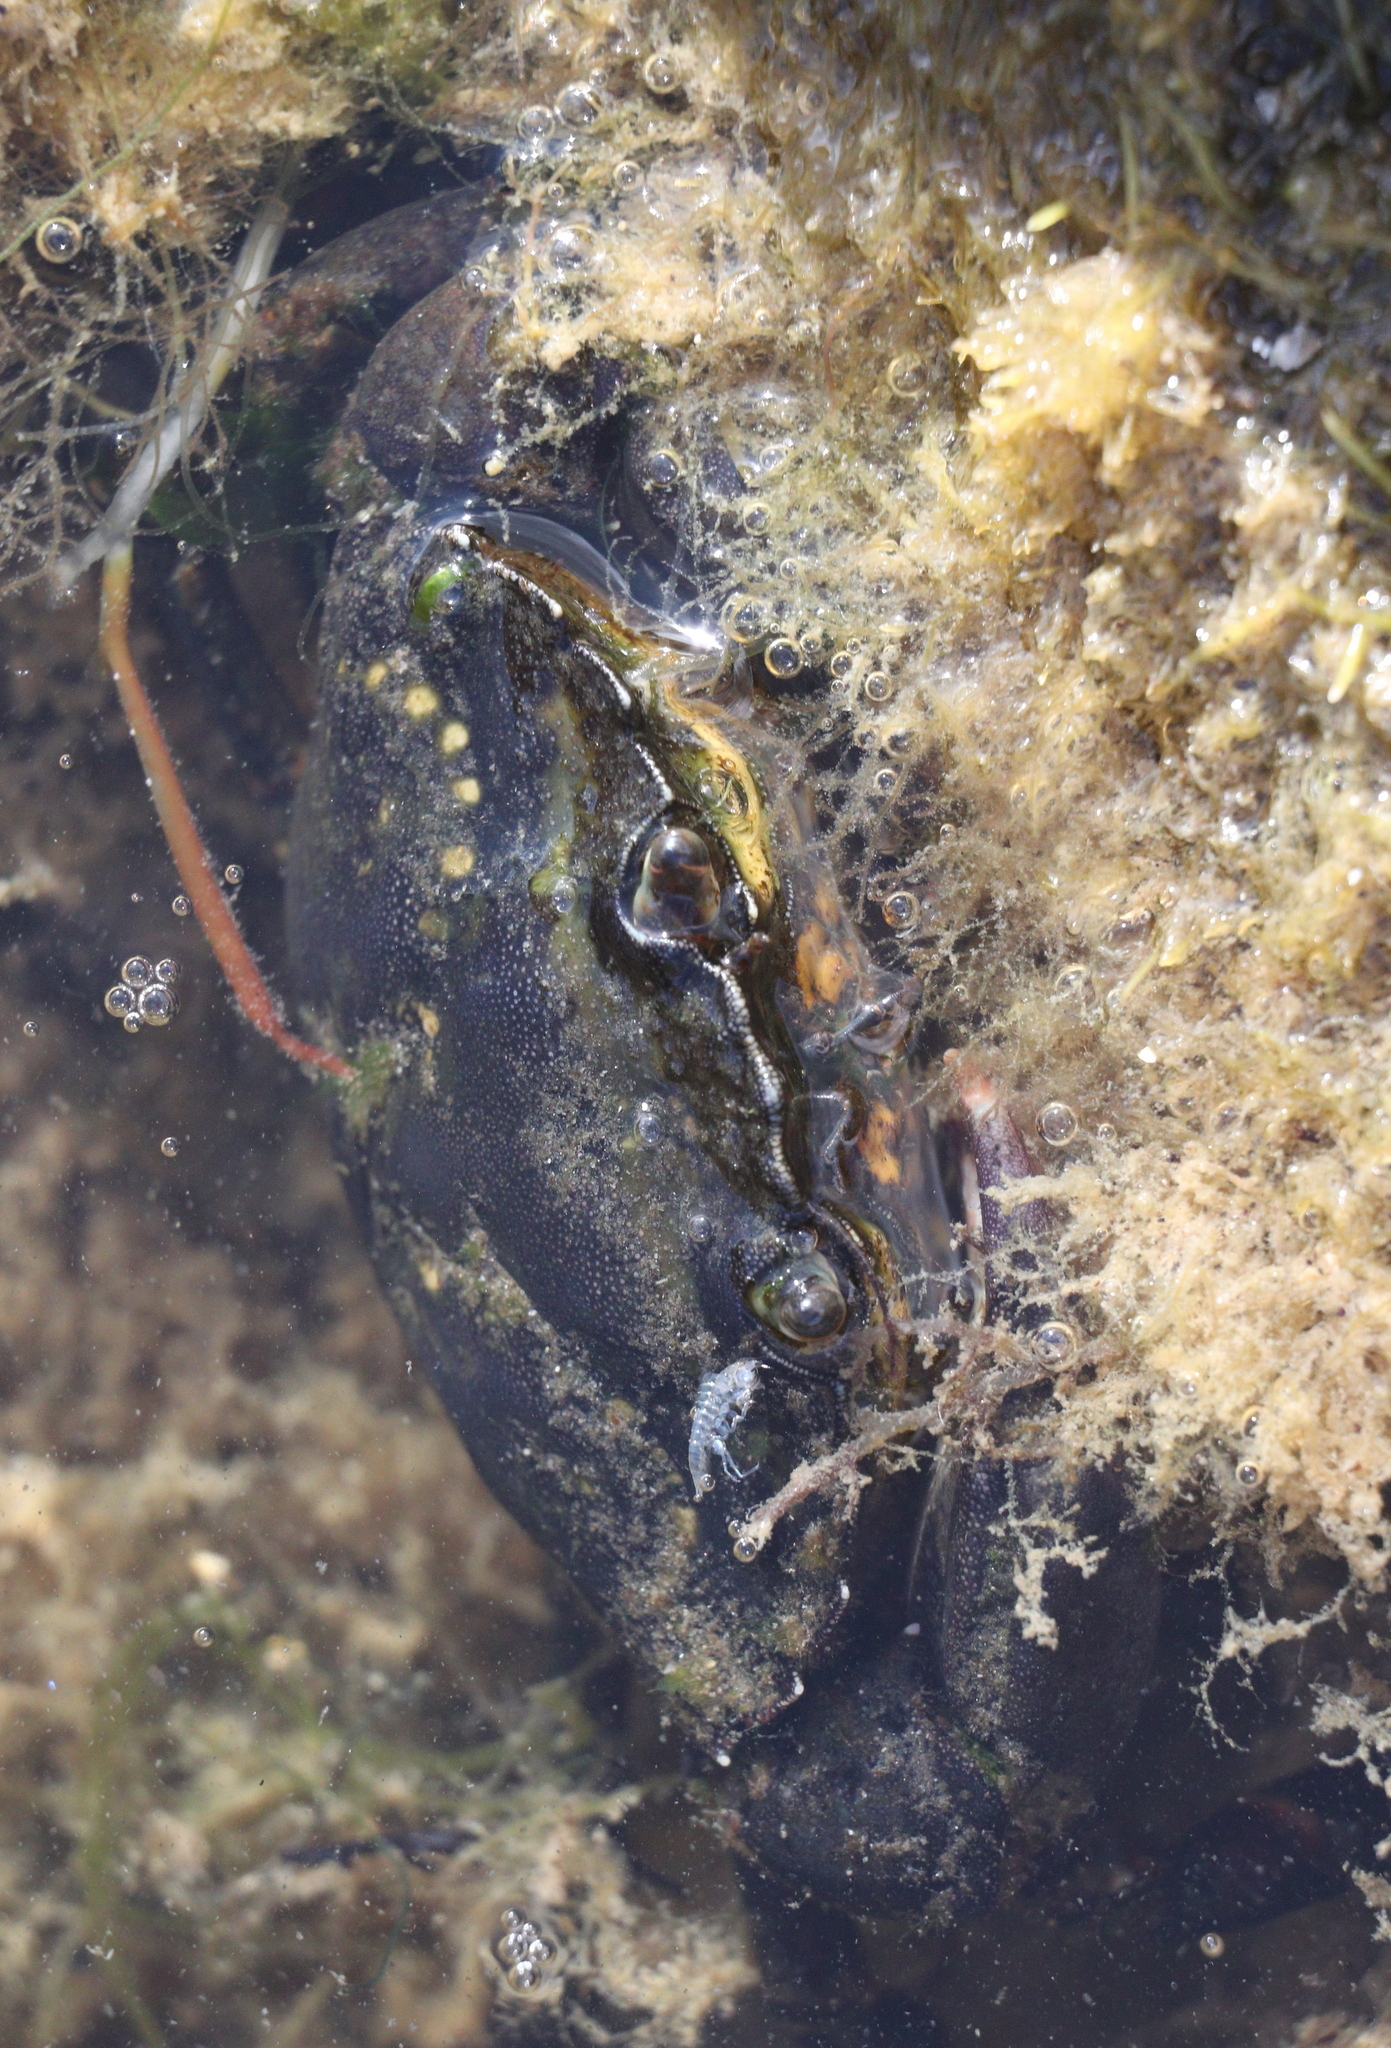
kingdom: Animalia
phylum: Arthropoda
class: Malacostraca
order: Decapoda
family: Carcinidae
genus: Carcinus
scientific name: Carcinus maenas
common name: European green crab
